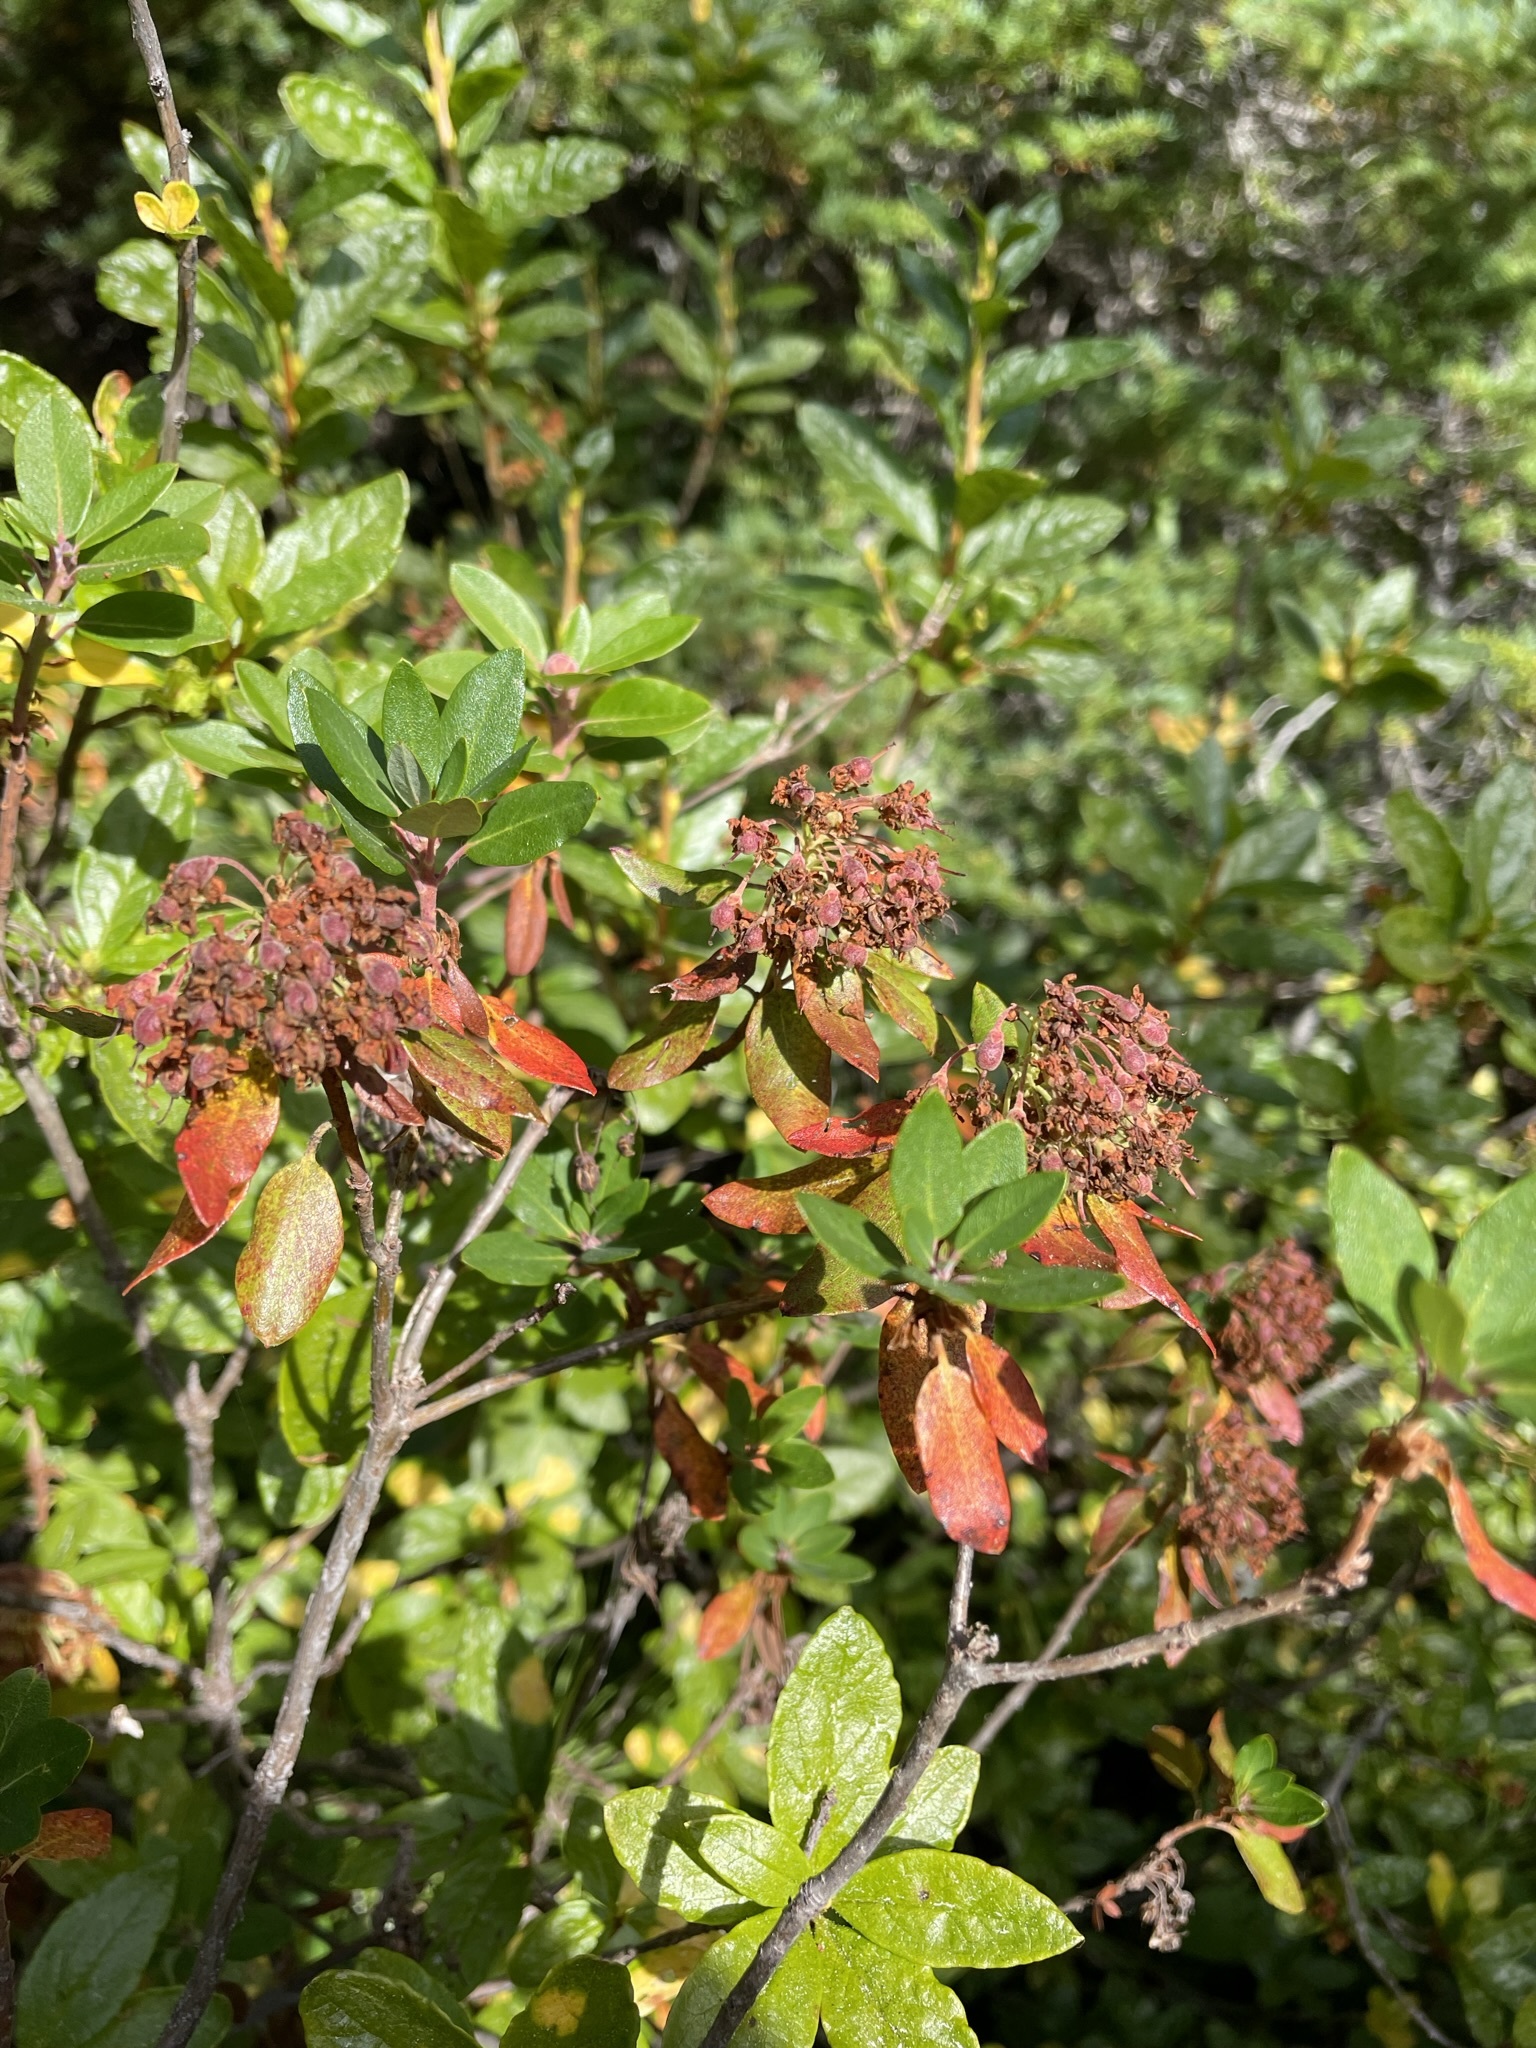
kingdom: Plantae
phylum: Tracheophyta
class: Magnoliopsida
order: Ericales
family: Ericaceae
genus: Rhododendron
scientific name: Rhododendron columbianum
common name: Western labrador tea
